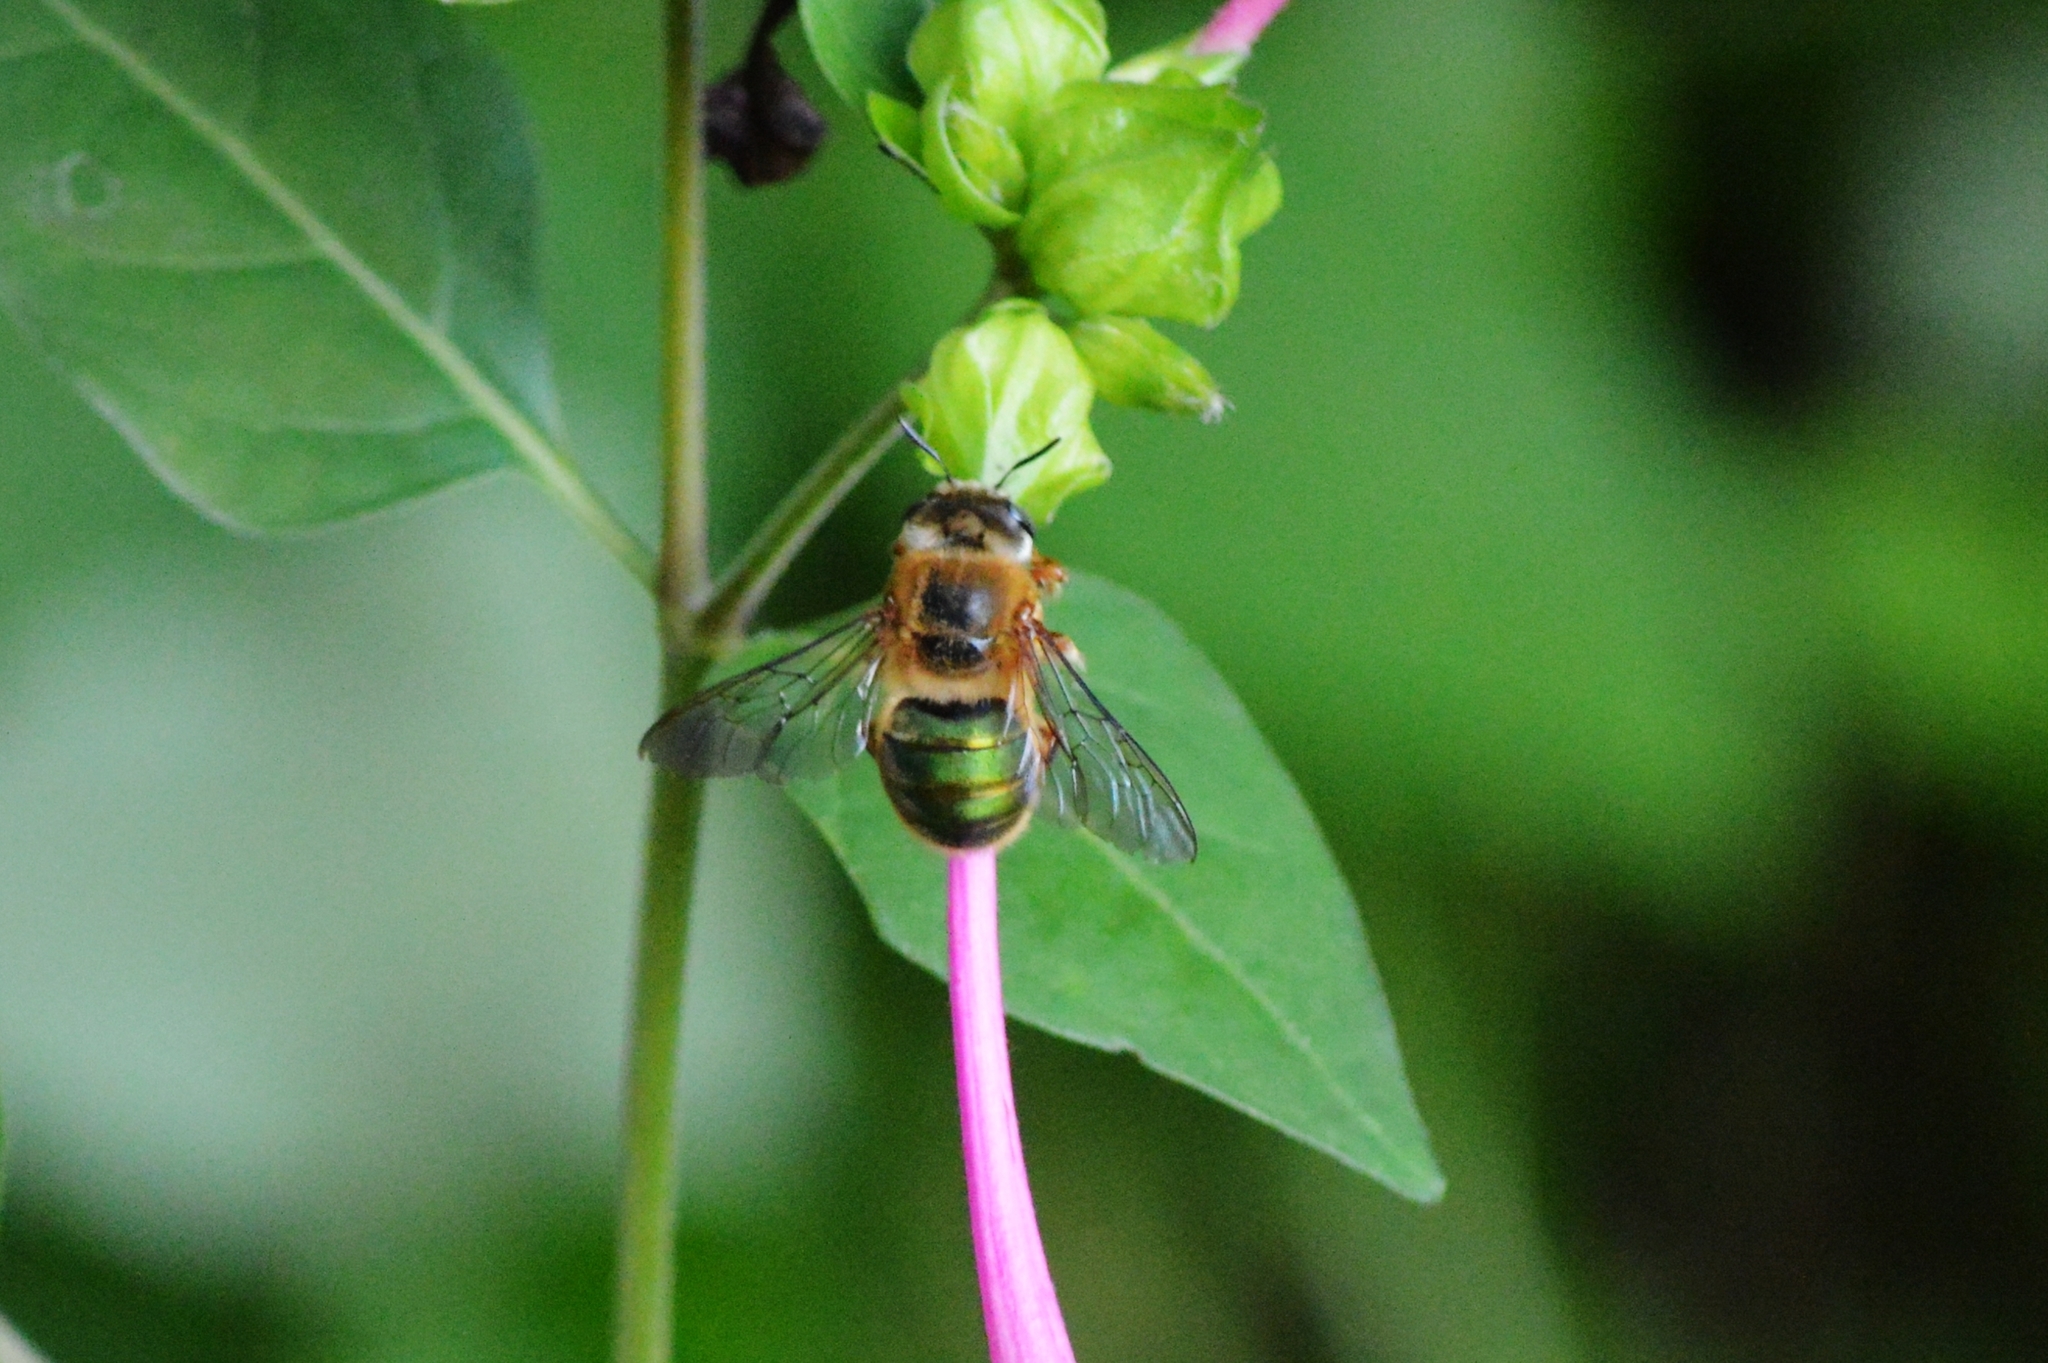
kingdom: Animalia
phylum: Arthropoda
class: Insecta
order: Hymenoptera
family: Andrenidae
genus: Oxaea
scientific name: Oxaea flavescens
